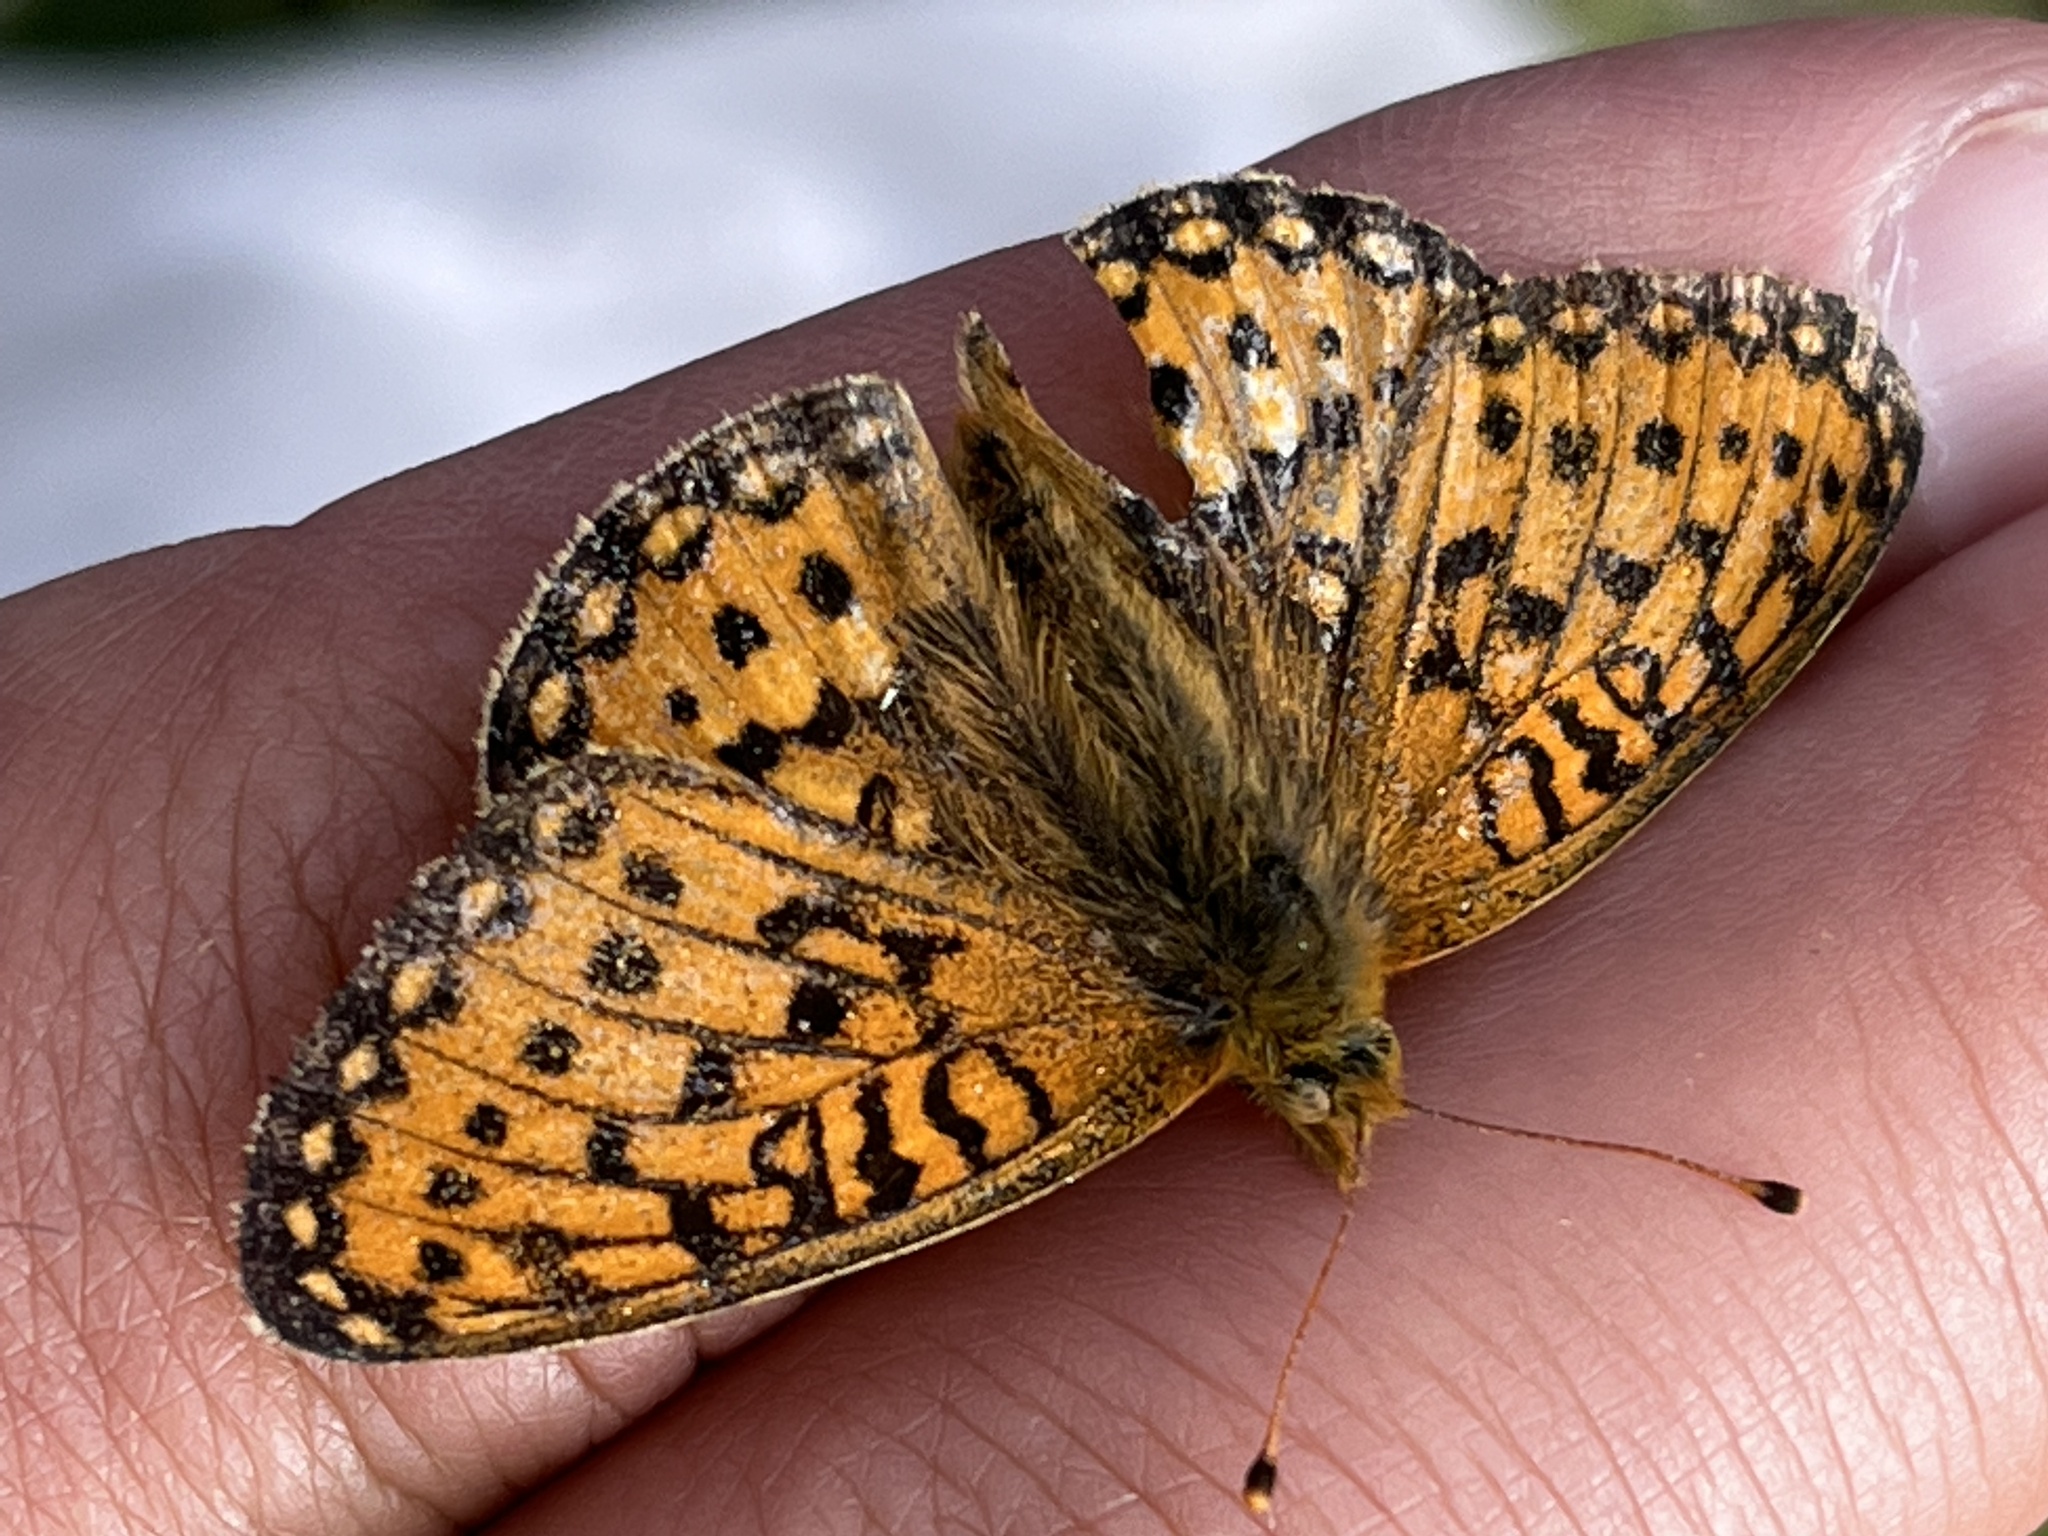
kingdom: Animalia
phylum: Arthropoda
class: Insecta
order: Lepidoptera
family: Nymphalidae
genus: Speyeria
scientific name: Speyeria mormonia
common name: Mormon fritillary
